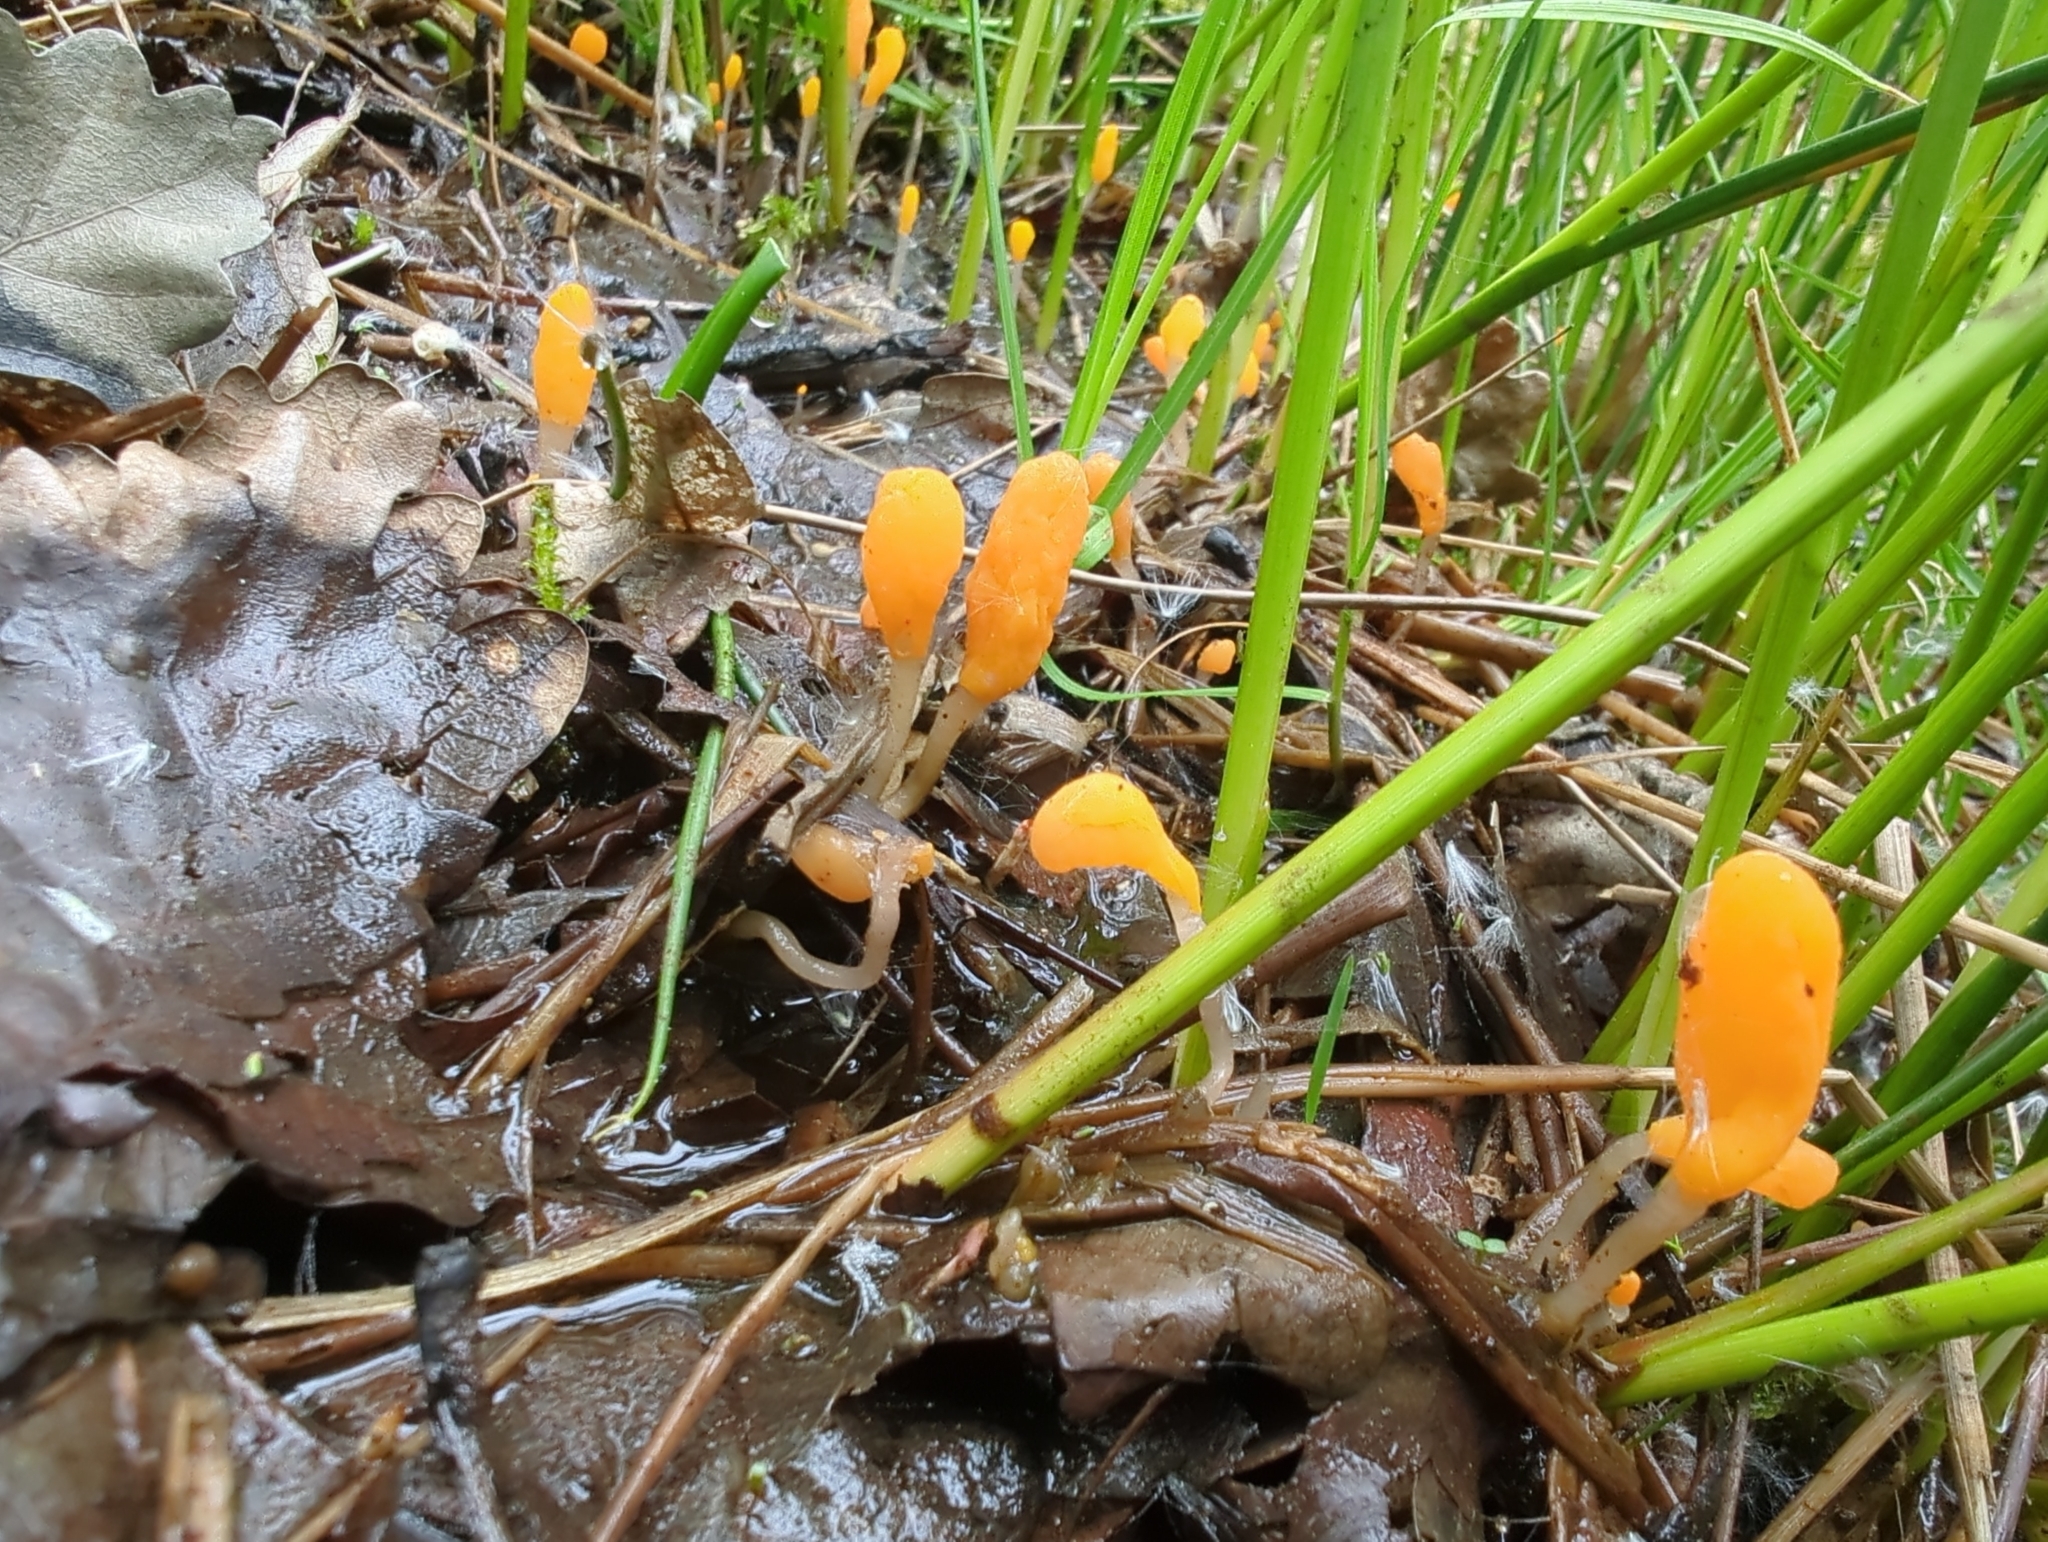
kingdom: Fungi
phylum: Ascomycota
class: Leotiomycetes
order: Helotiales
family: Cenangiaceae
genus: Mitrula
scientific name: Mitrula paludosa
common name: Bog beacon
